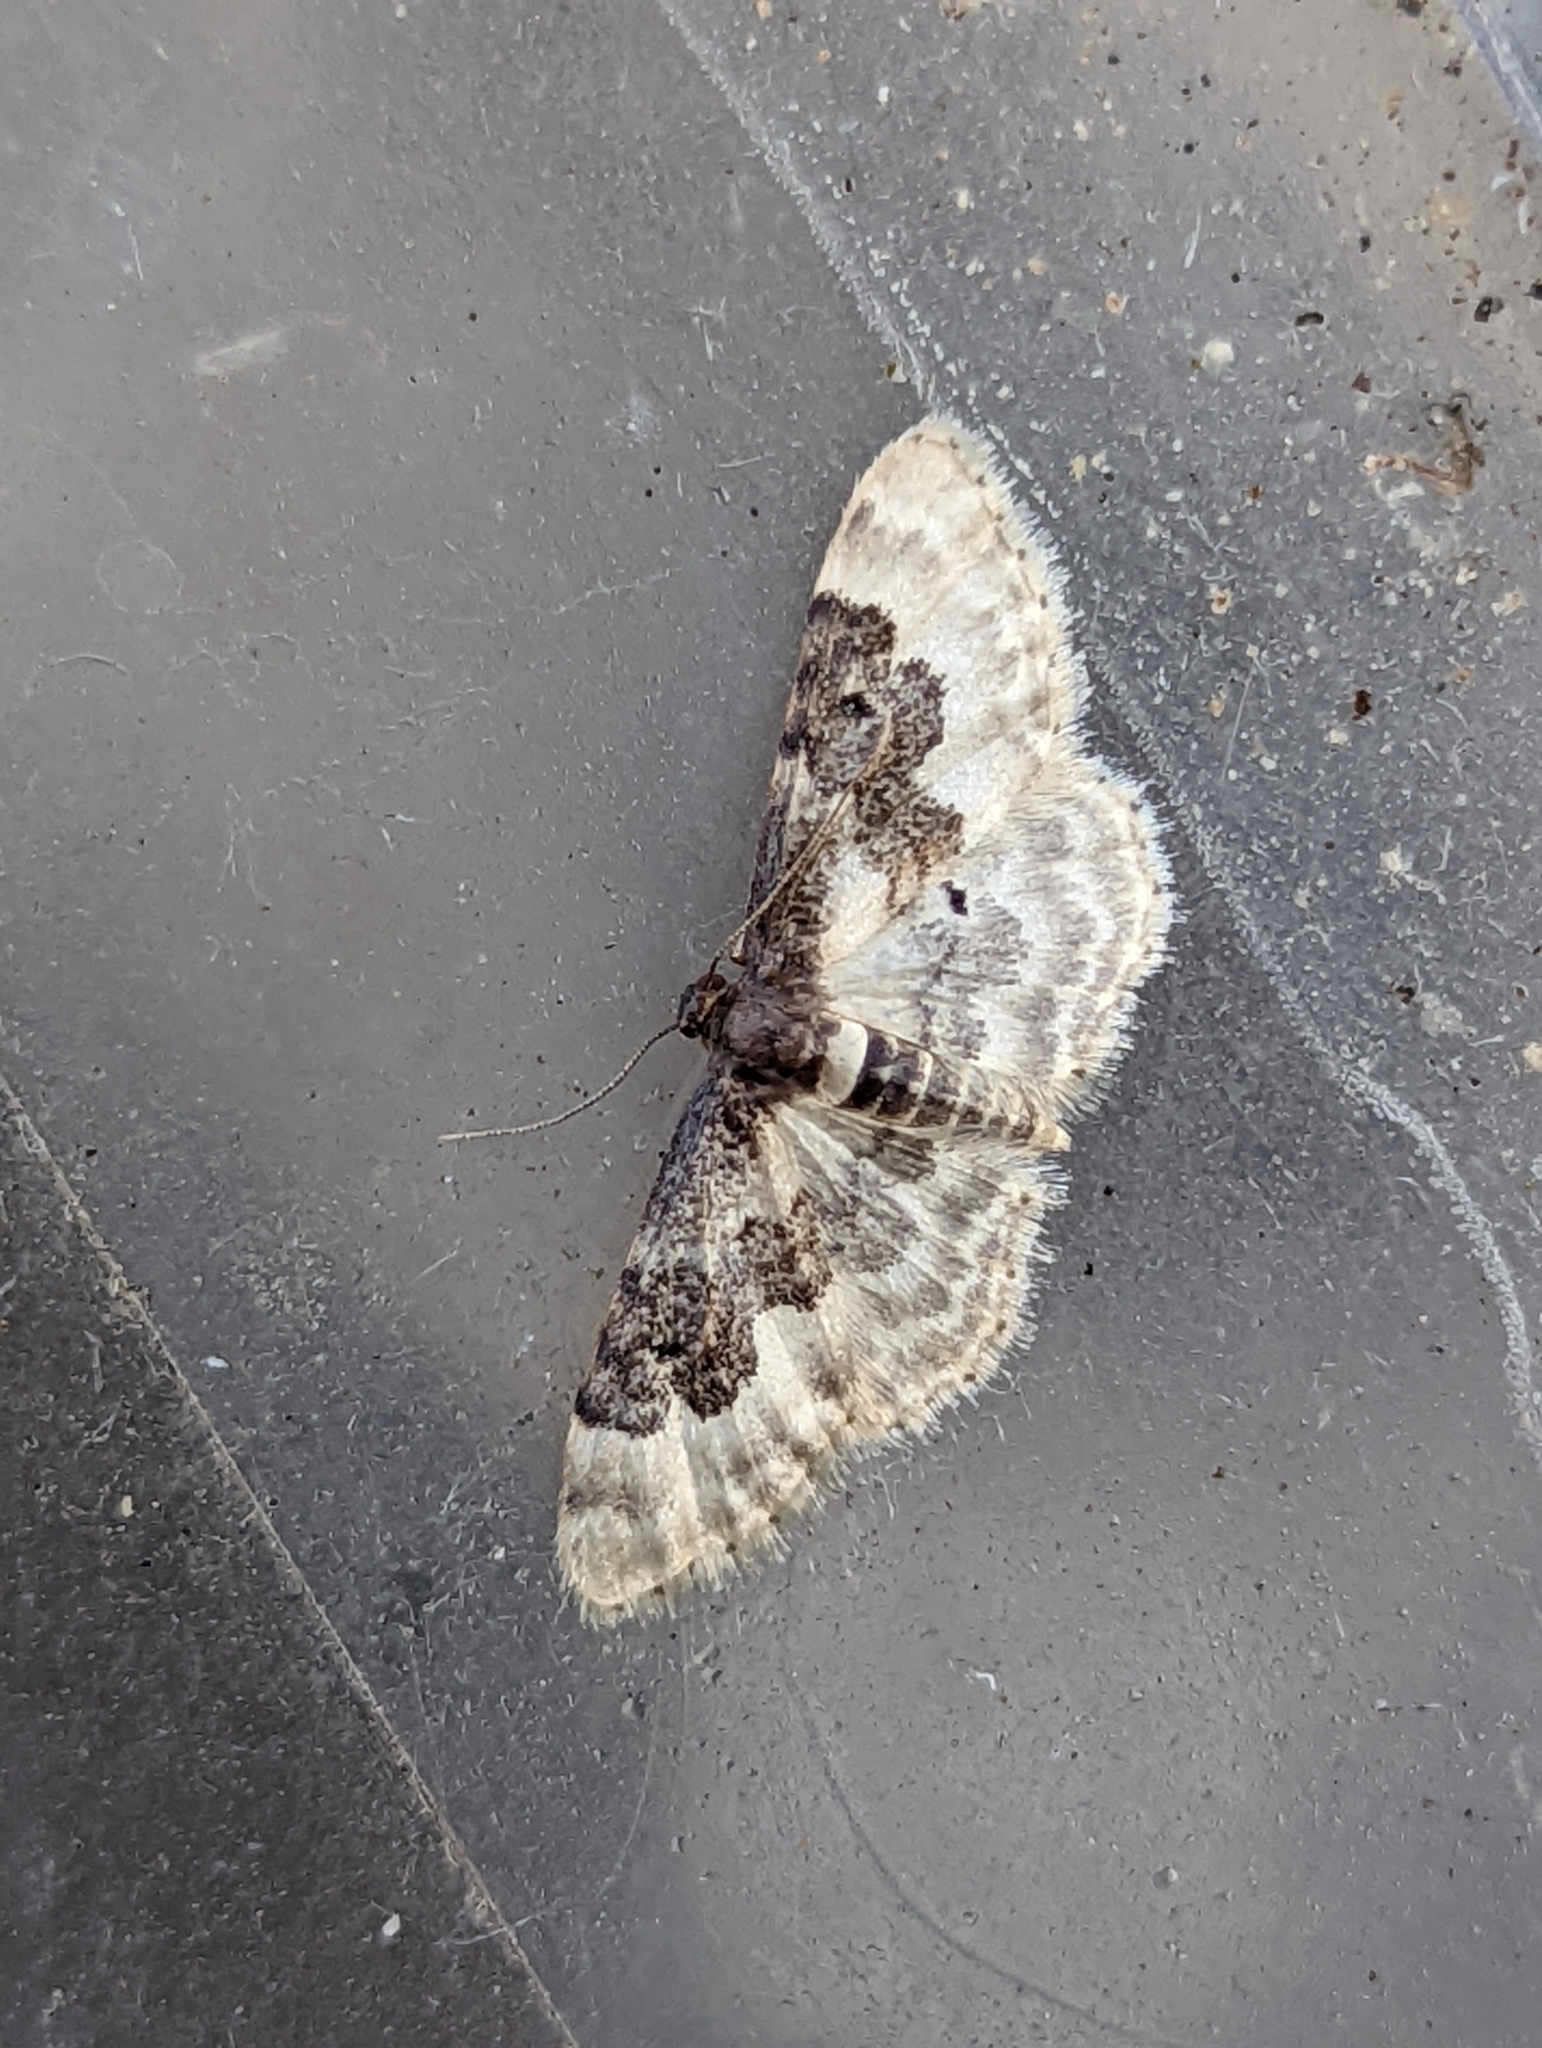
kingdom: Animalia
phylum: Arthropoda
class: Insecta
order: Lepidoptera
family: Geometridae
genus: Idaea
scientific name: Idaea rusticata
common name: Least carpet
